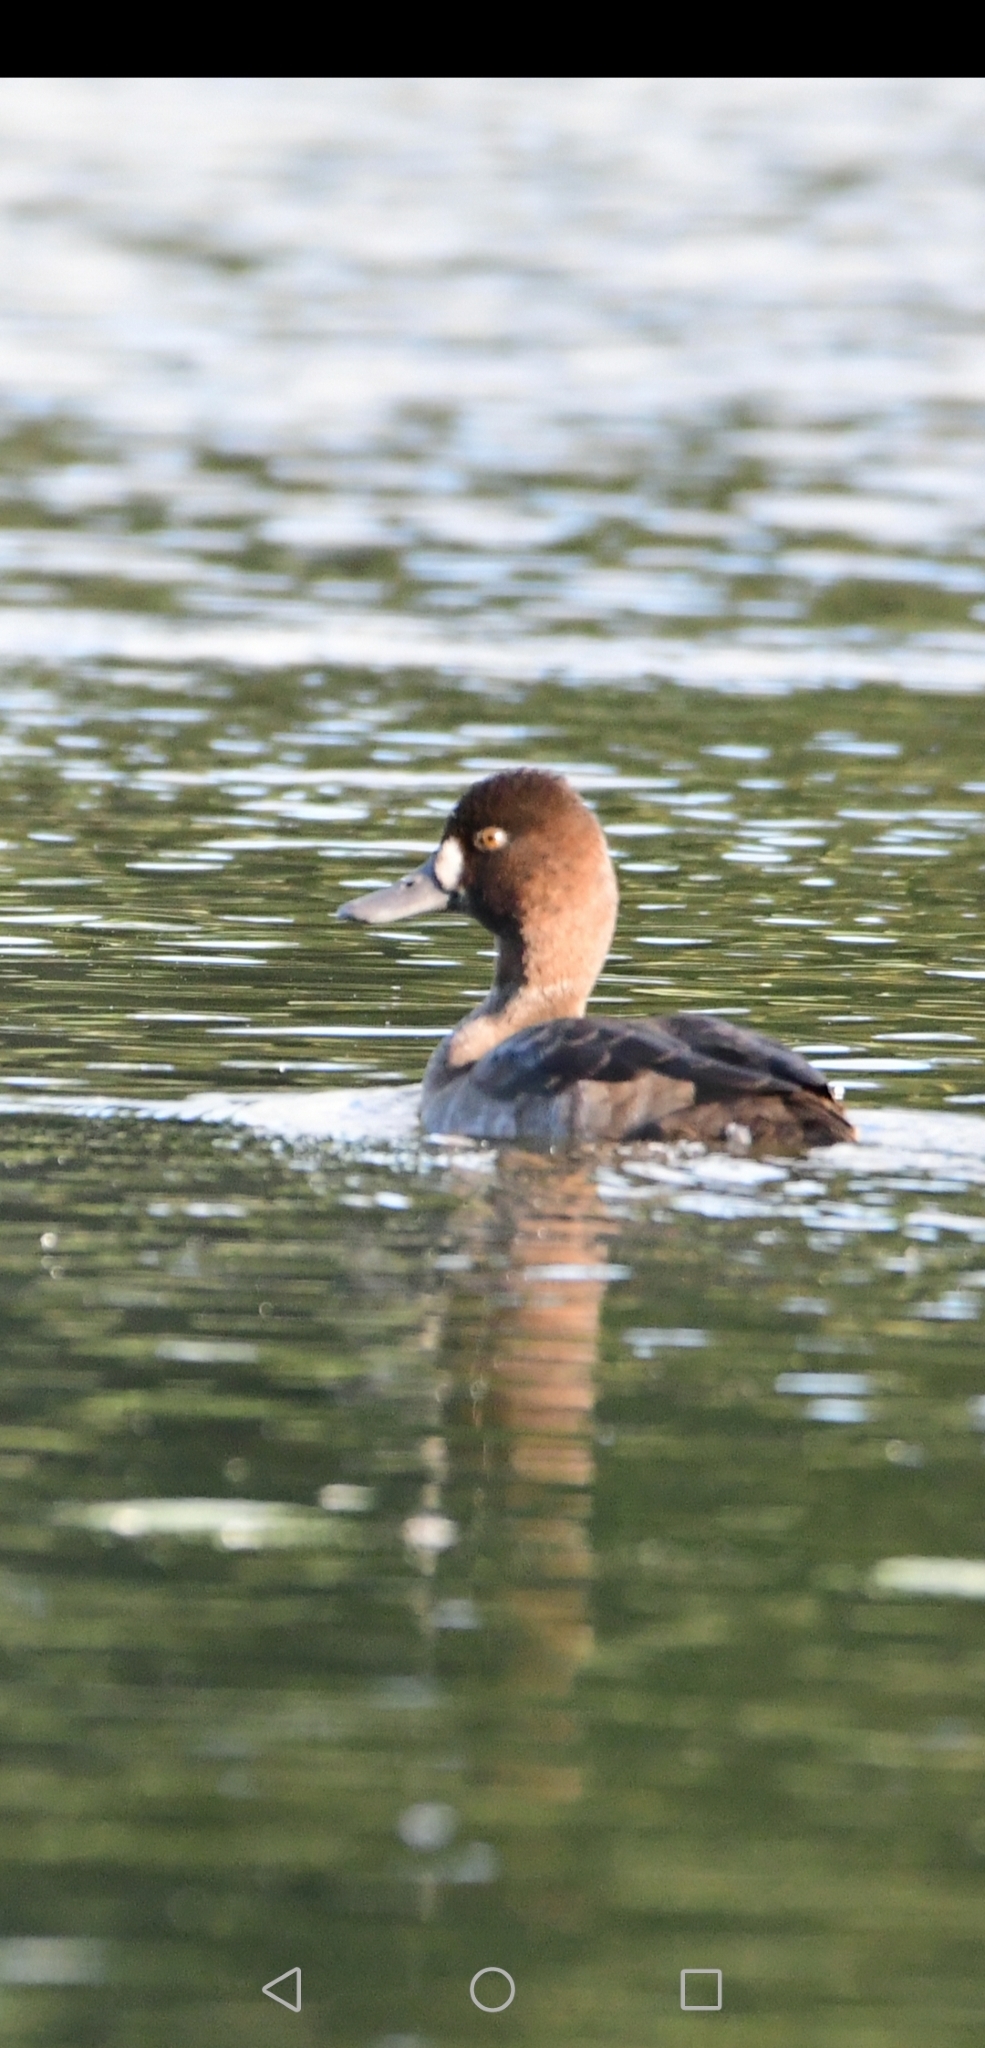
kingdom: Animalia
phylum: Chordata
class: Aves
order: Anseriformes
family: Anatidae
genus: Aythya
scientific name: Aythya marila
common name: Greater scaup
